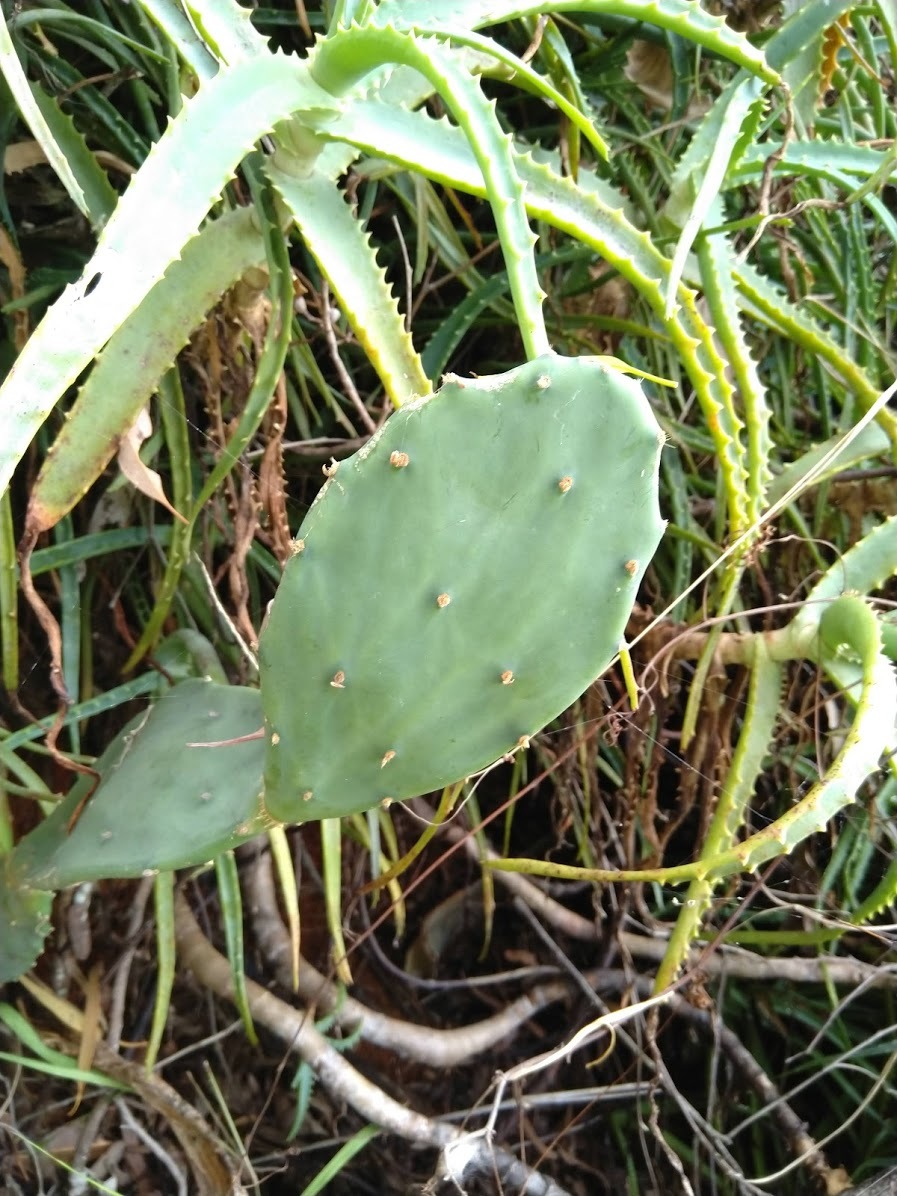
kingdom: Plantae
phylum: Tracheophyta
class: Magnoliopsida
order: Caryophyllales
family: Cactaceae
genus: Opuntia
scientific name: Opuntia stricta
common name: Erect pricklypear
